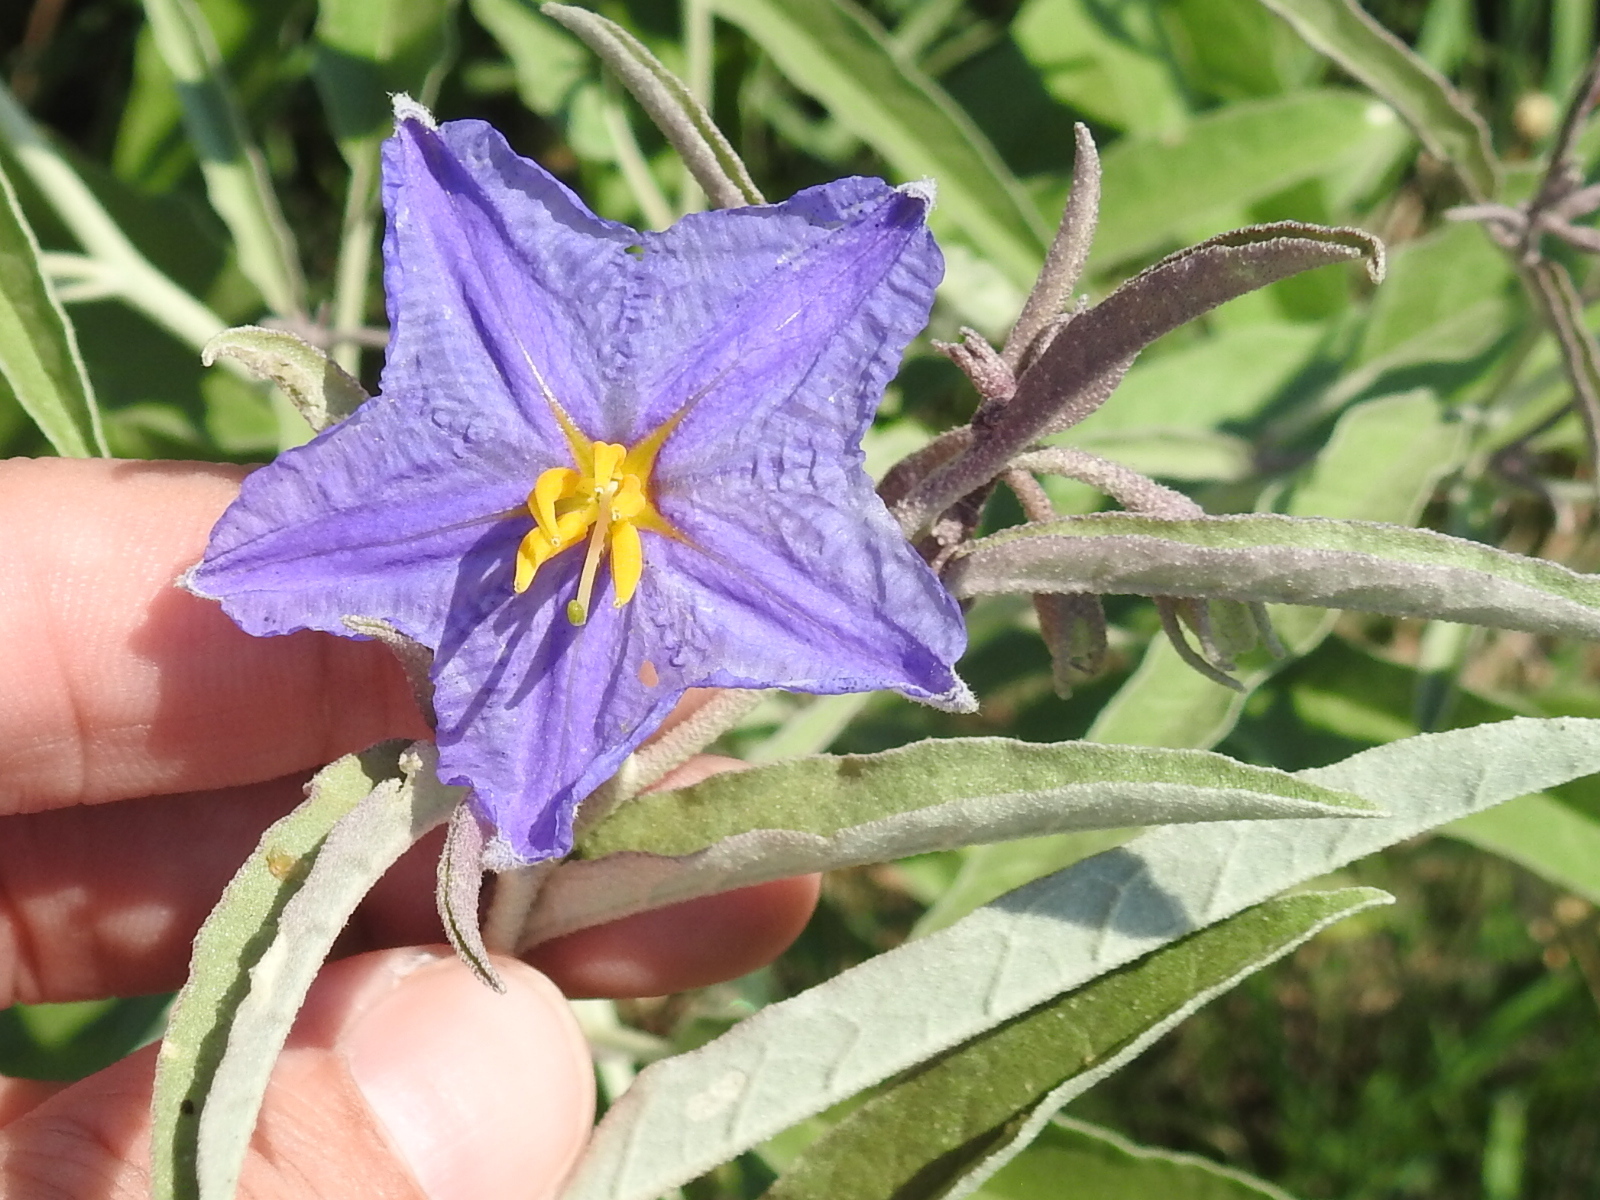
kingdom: Plantae
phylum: Tracheophyta
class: Magnoliopsida
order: Solanales
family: Solanaceae
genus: Solanum
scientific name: Solanum elaeagnifolium
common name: Silverleaf nightshade
